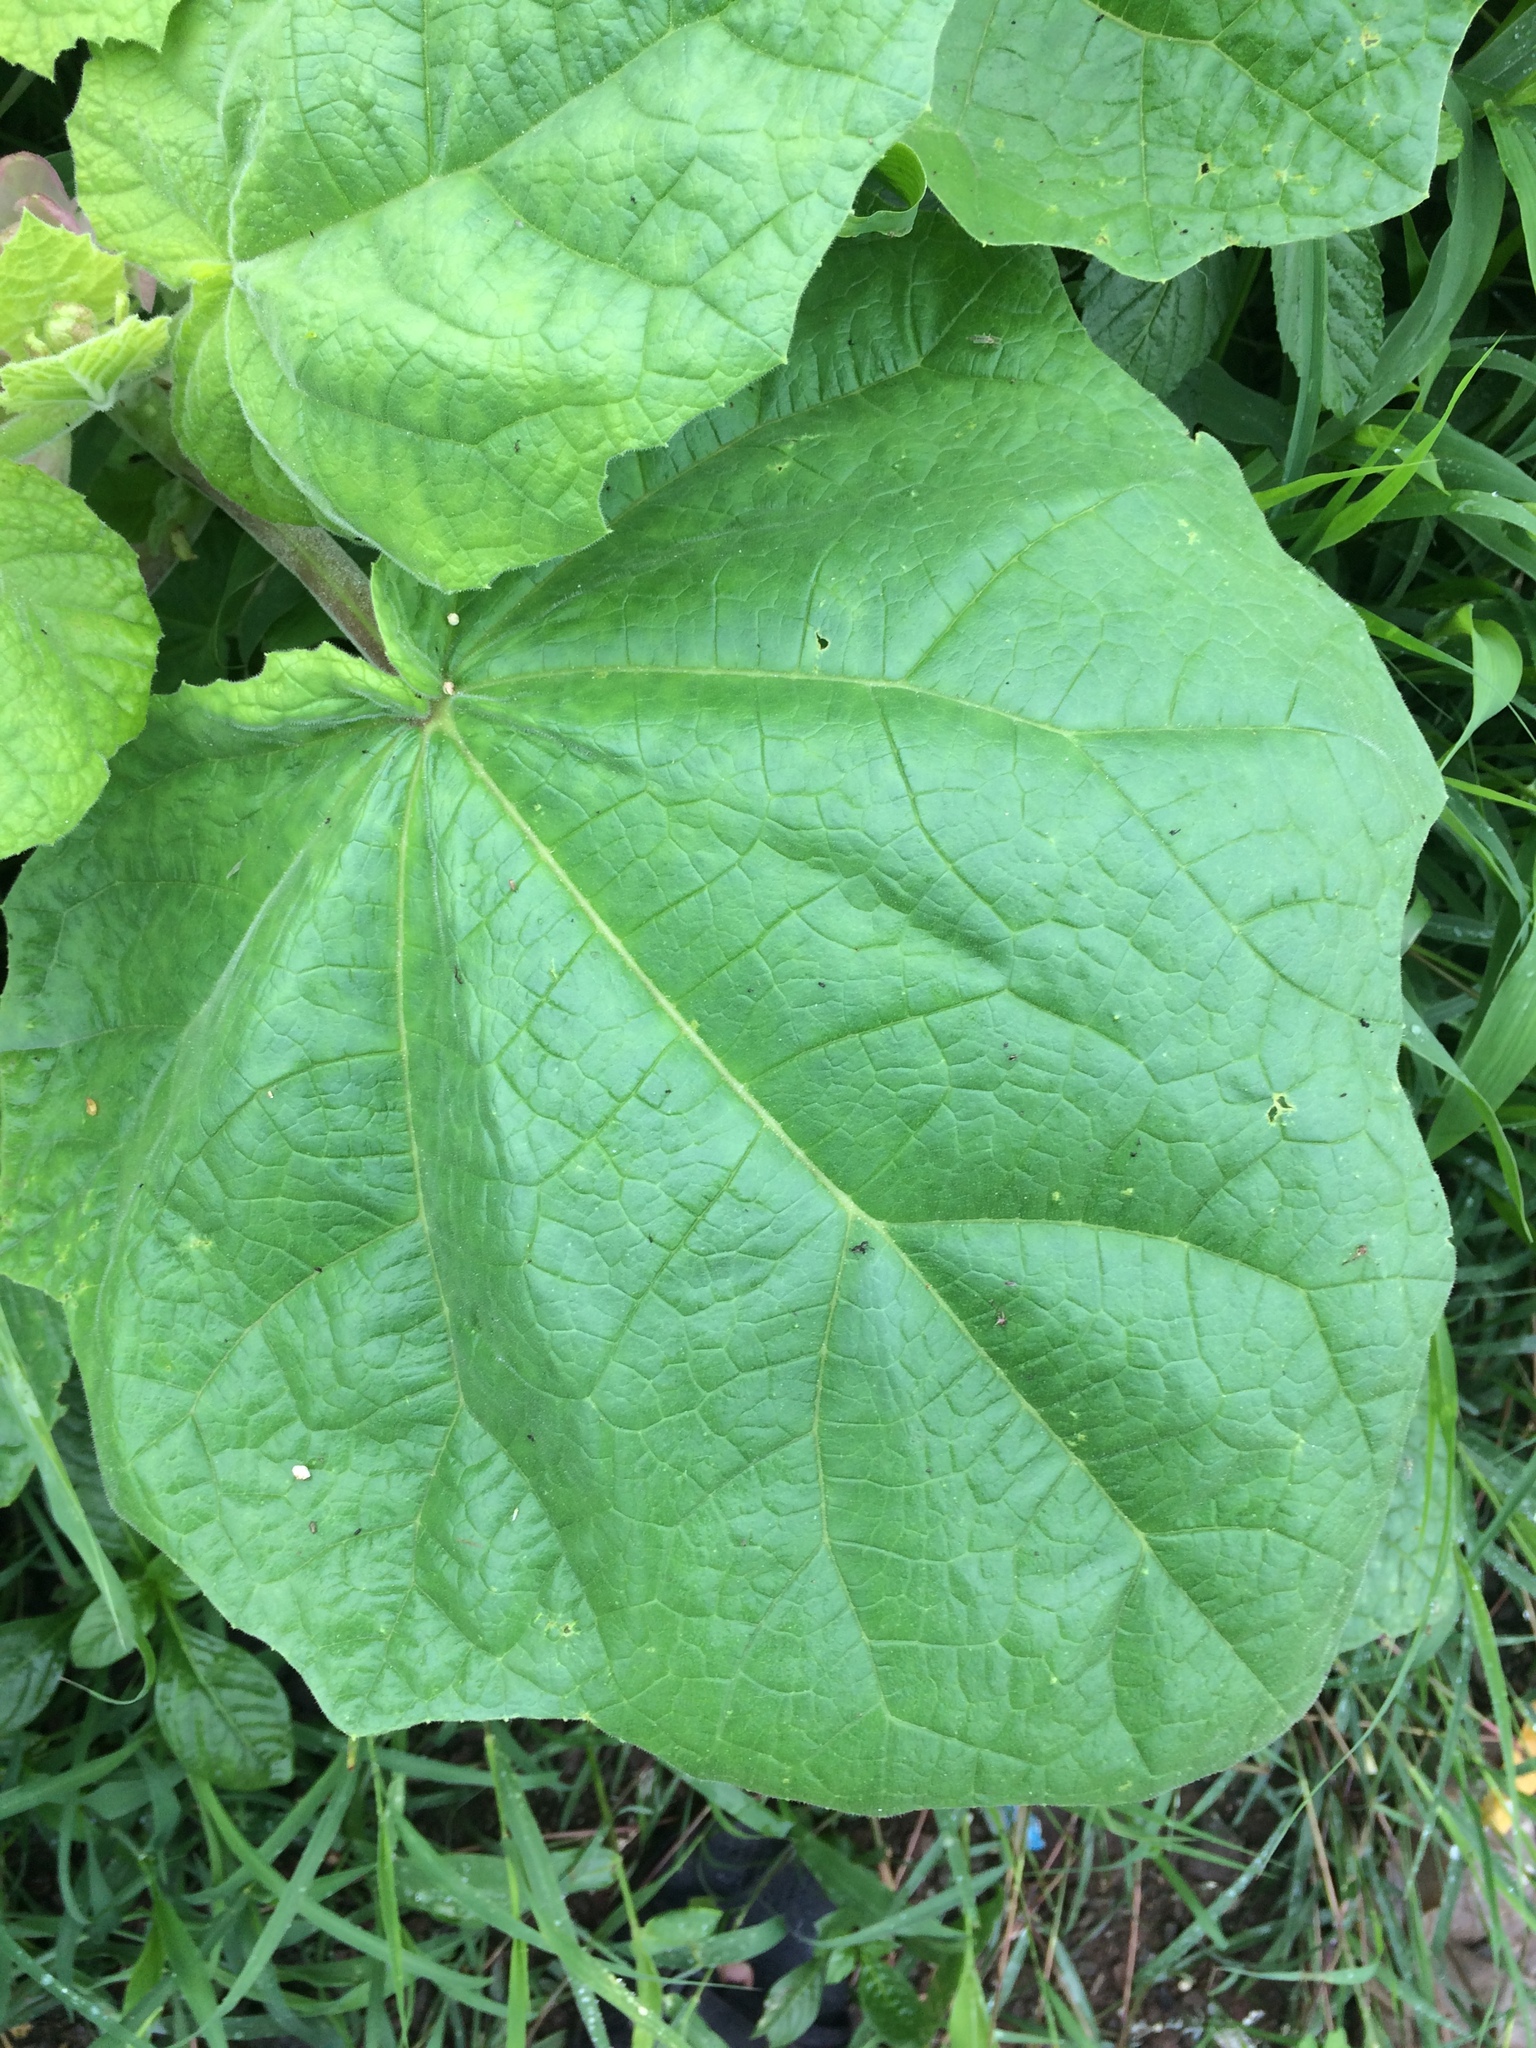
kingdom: Plantae
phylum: Tracheophyta
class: Magnoliopsida
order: Lamiales
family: Martyniaceae
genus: Martynia
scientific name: Martynia annua
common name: Tiger's-claw
